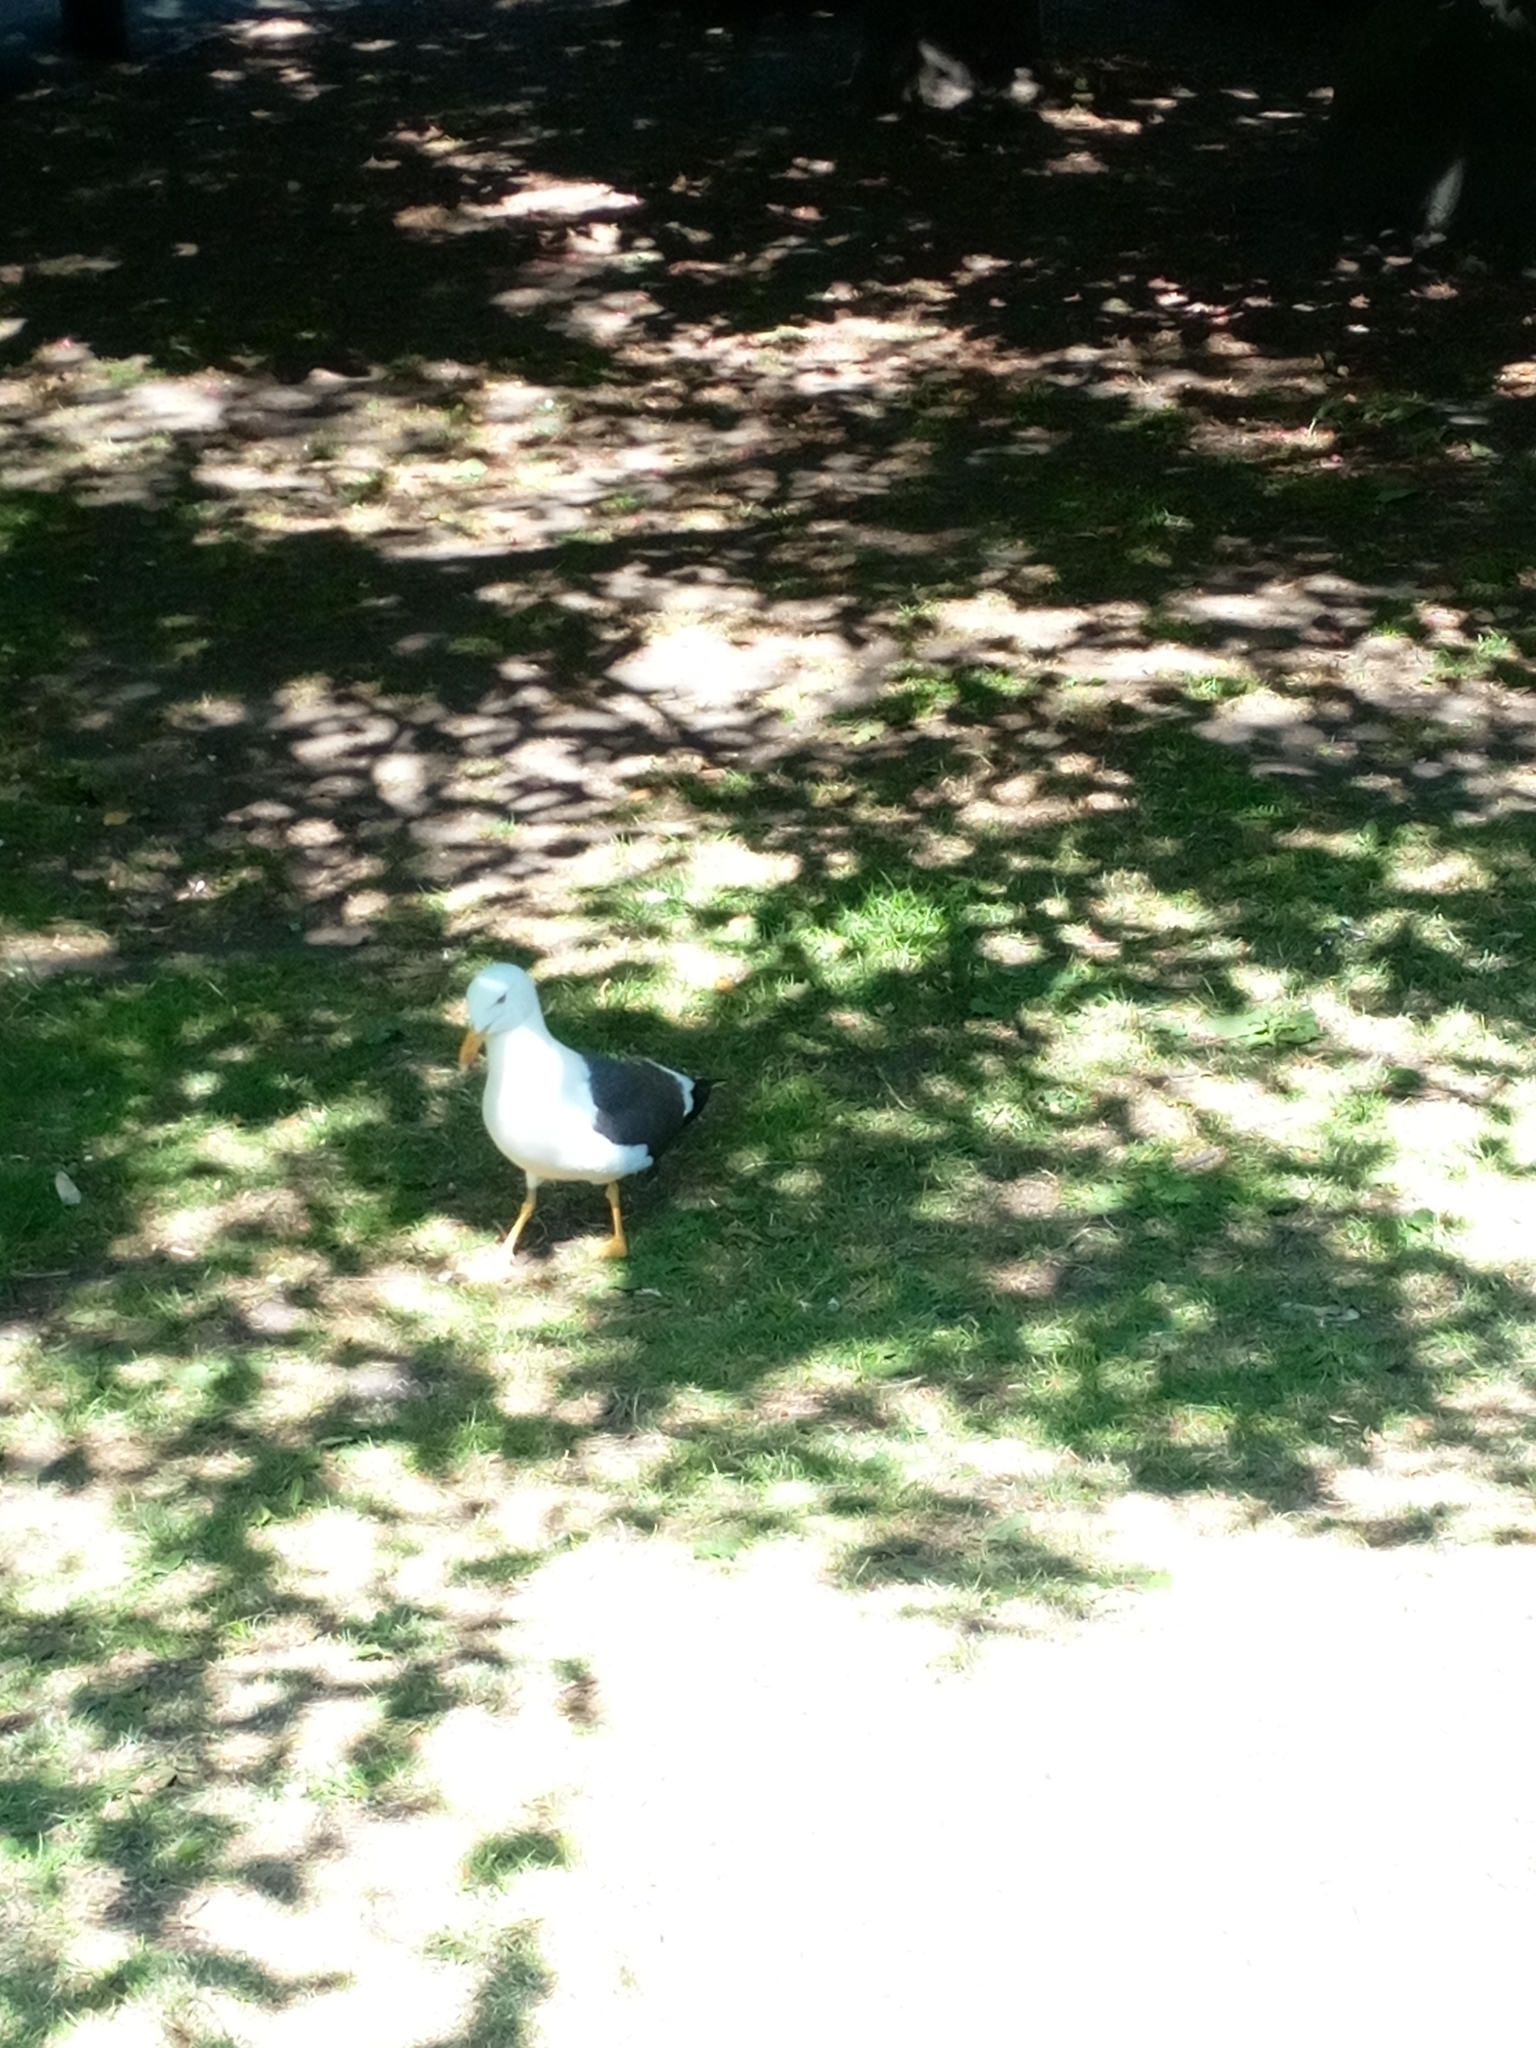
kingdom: Animalia
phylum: Chordata
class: Aves
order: Charadriiformes
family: Laridae
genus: Larus
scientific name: Larus fuscus
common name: Lesser black-backed gull
